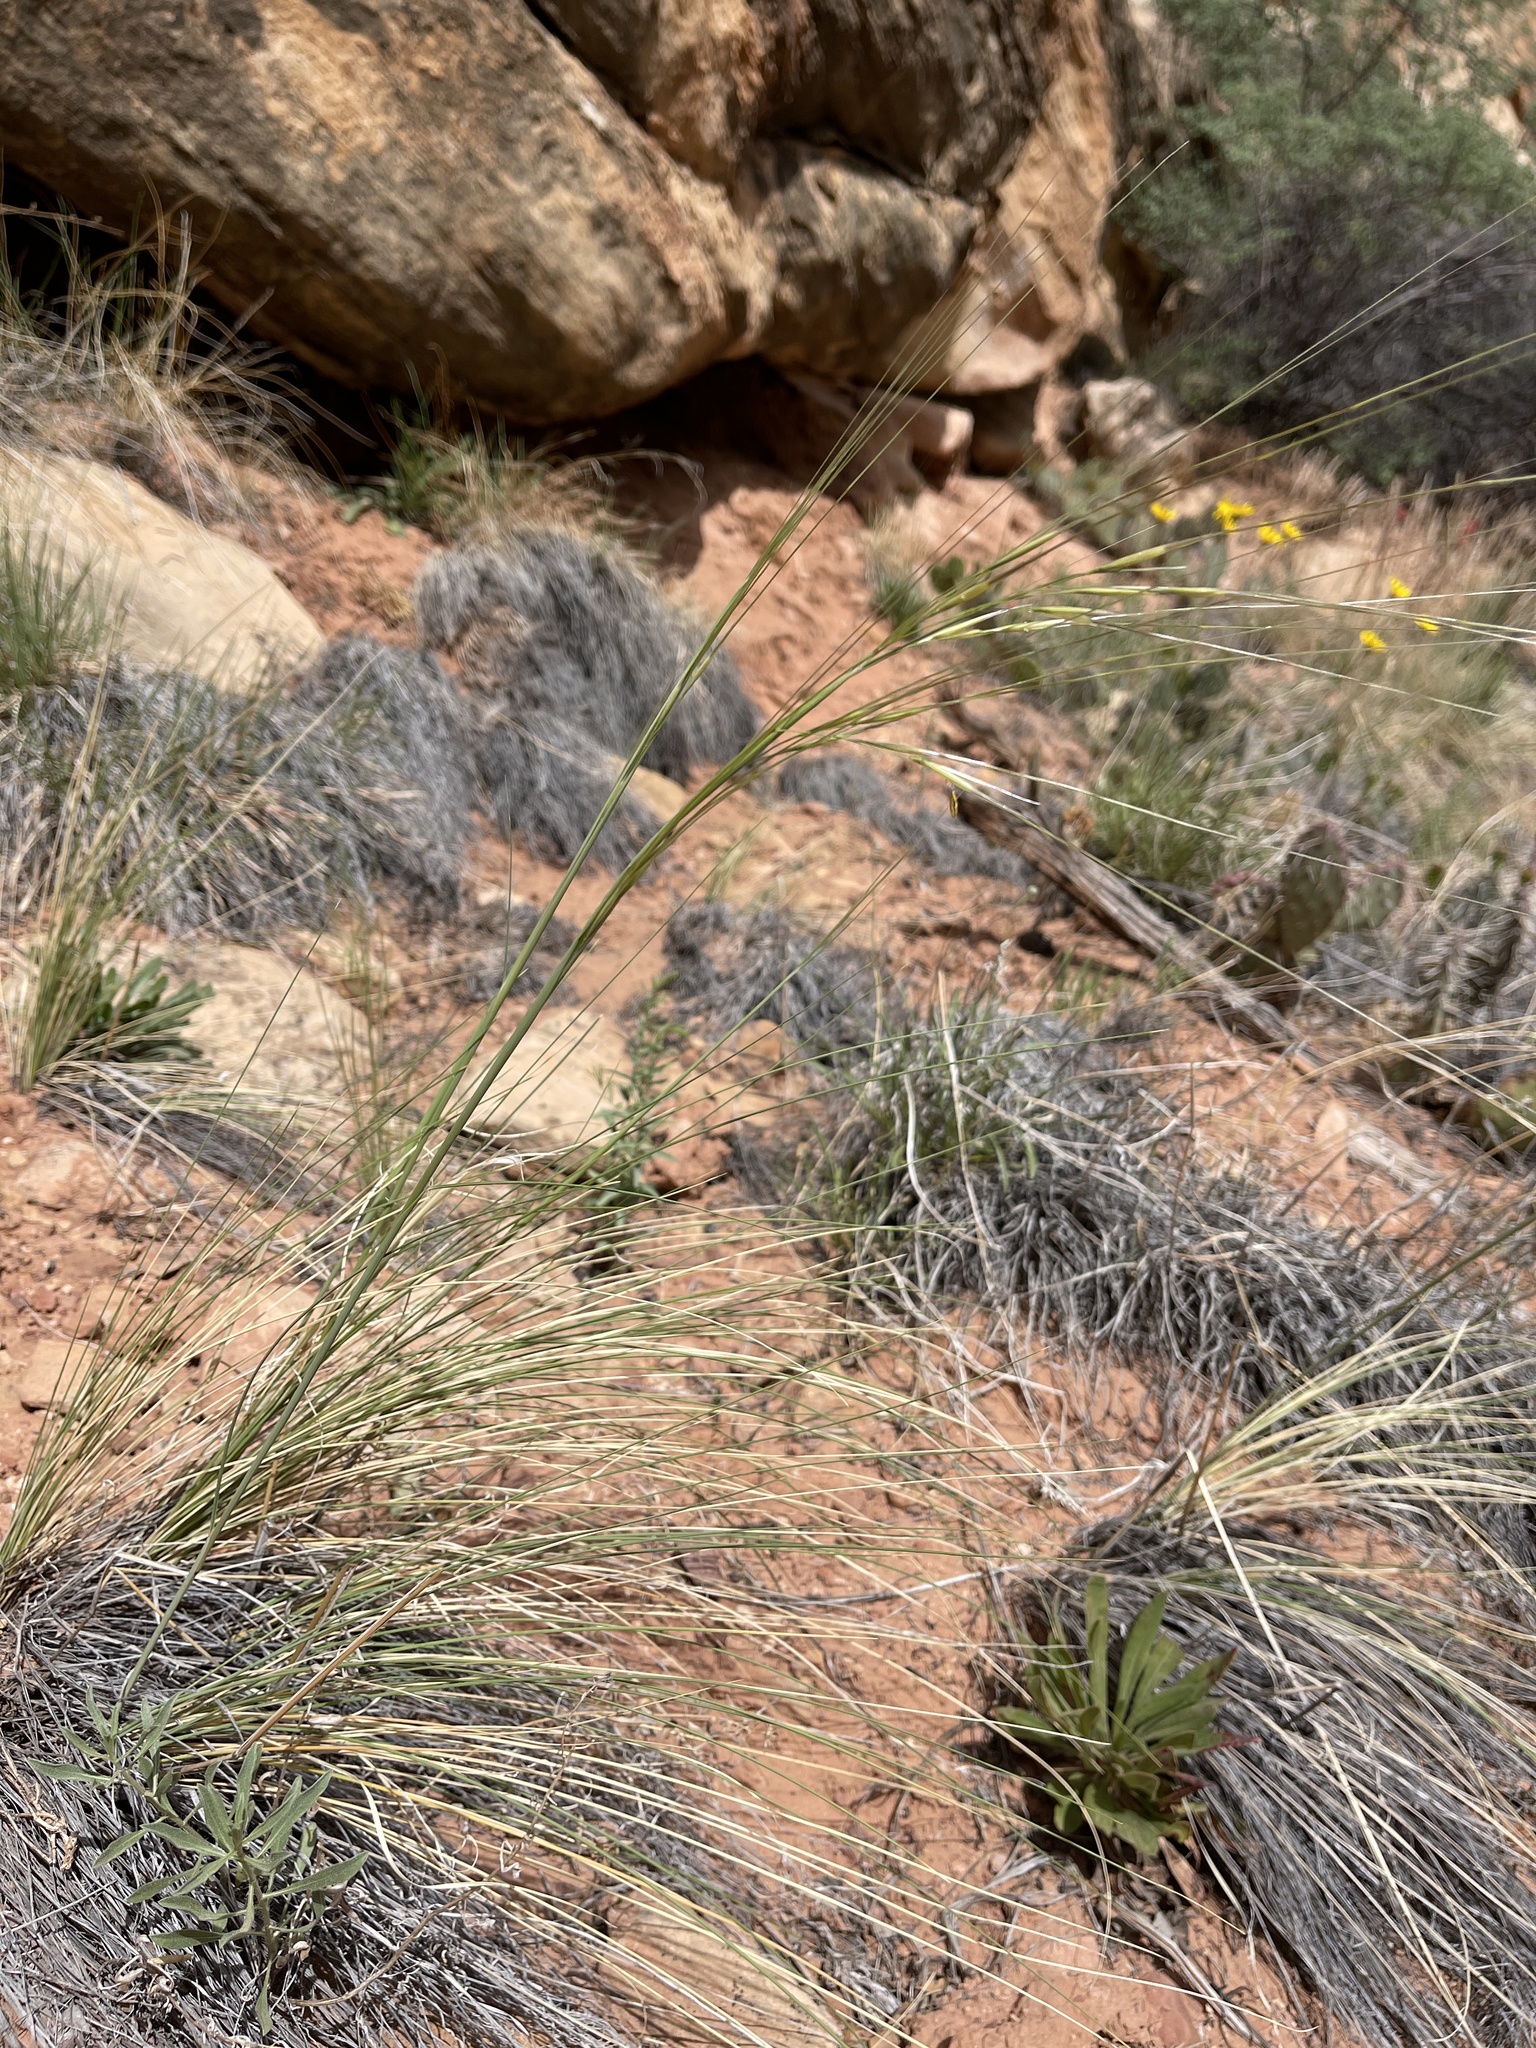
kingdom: Plantae
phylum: Tracheophyta
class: Liliopsida
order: Poales
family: Poaceae
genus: Hesperostipa
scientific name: Hesperostipa comata
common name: Needle-and-thread grass
